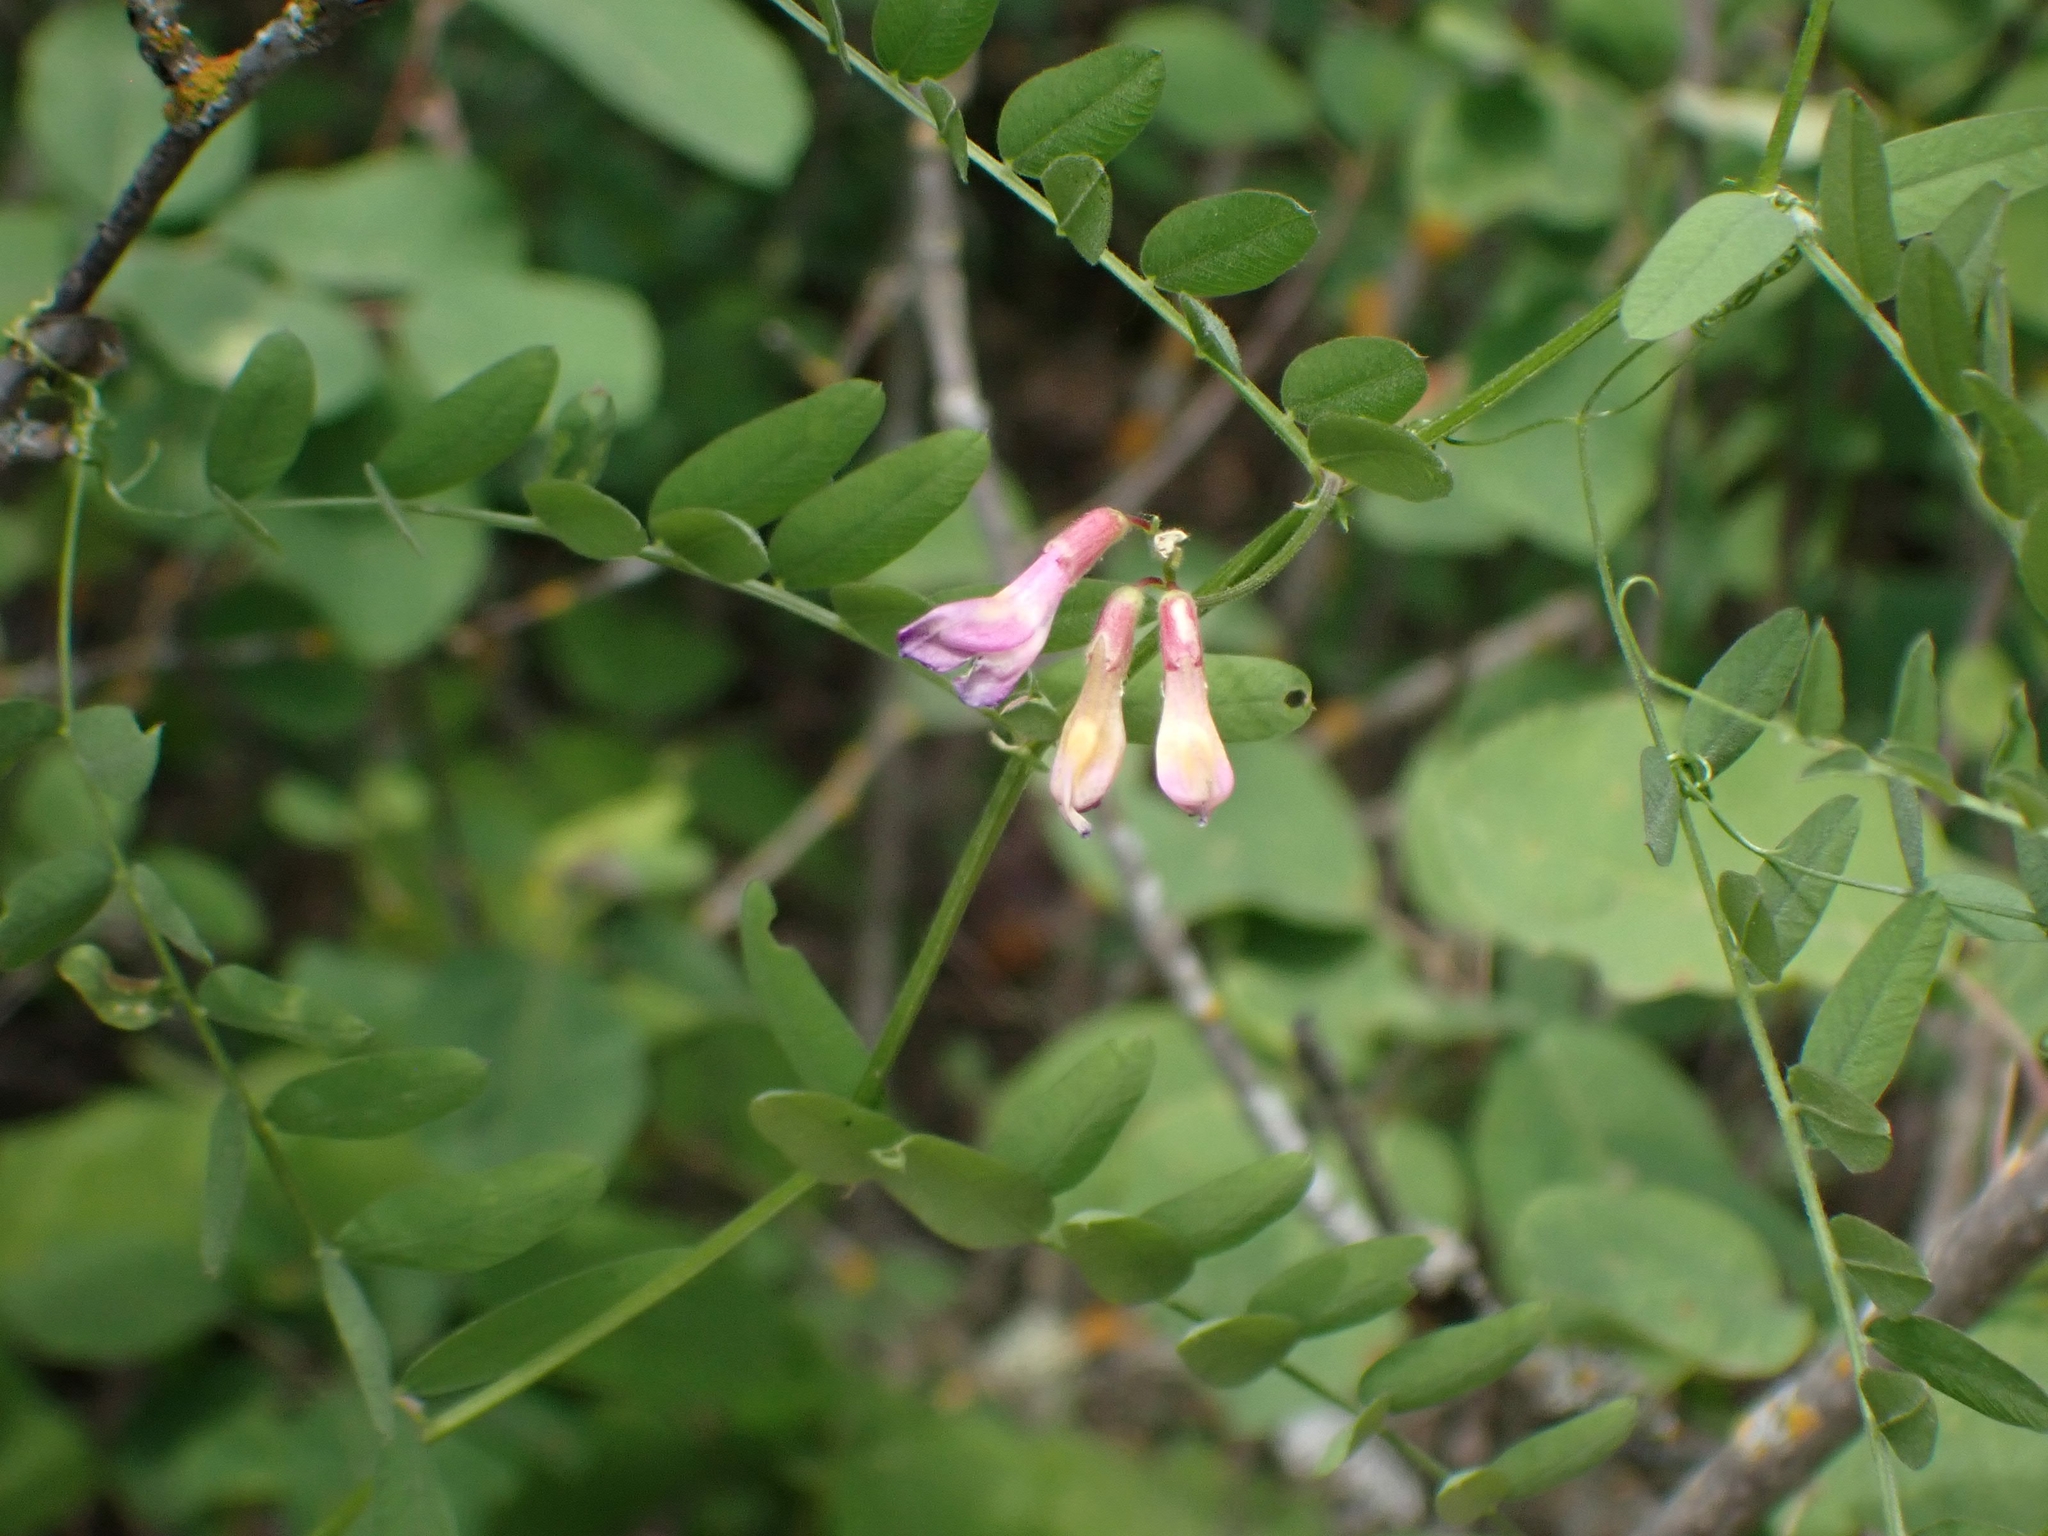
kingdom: Plantae
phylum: Tracheophyta
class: Magnoliopsida
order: Fabales
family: Fabaceae
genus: Vicia
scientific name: Vicia americana
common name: American vetch
